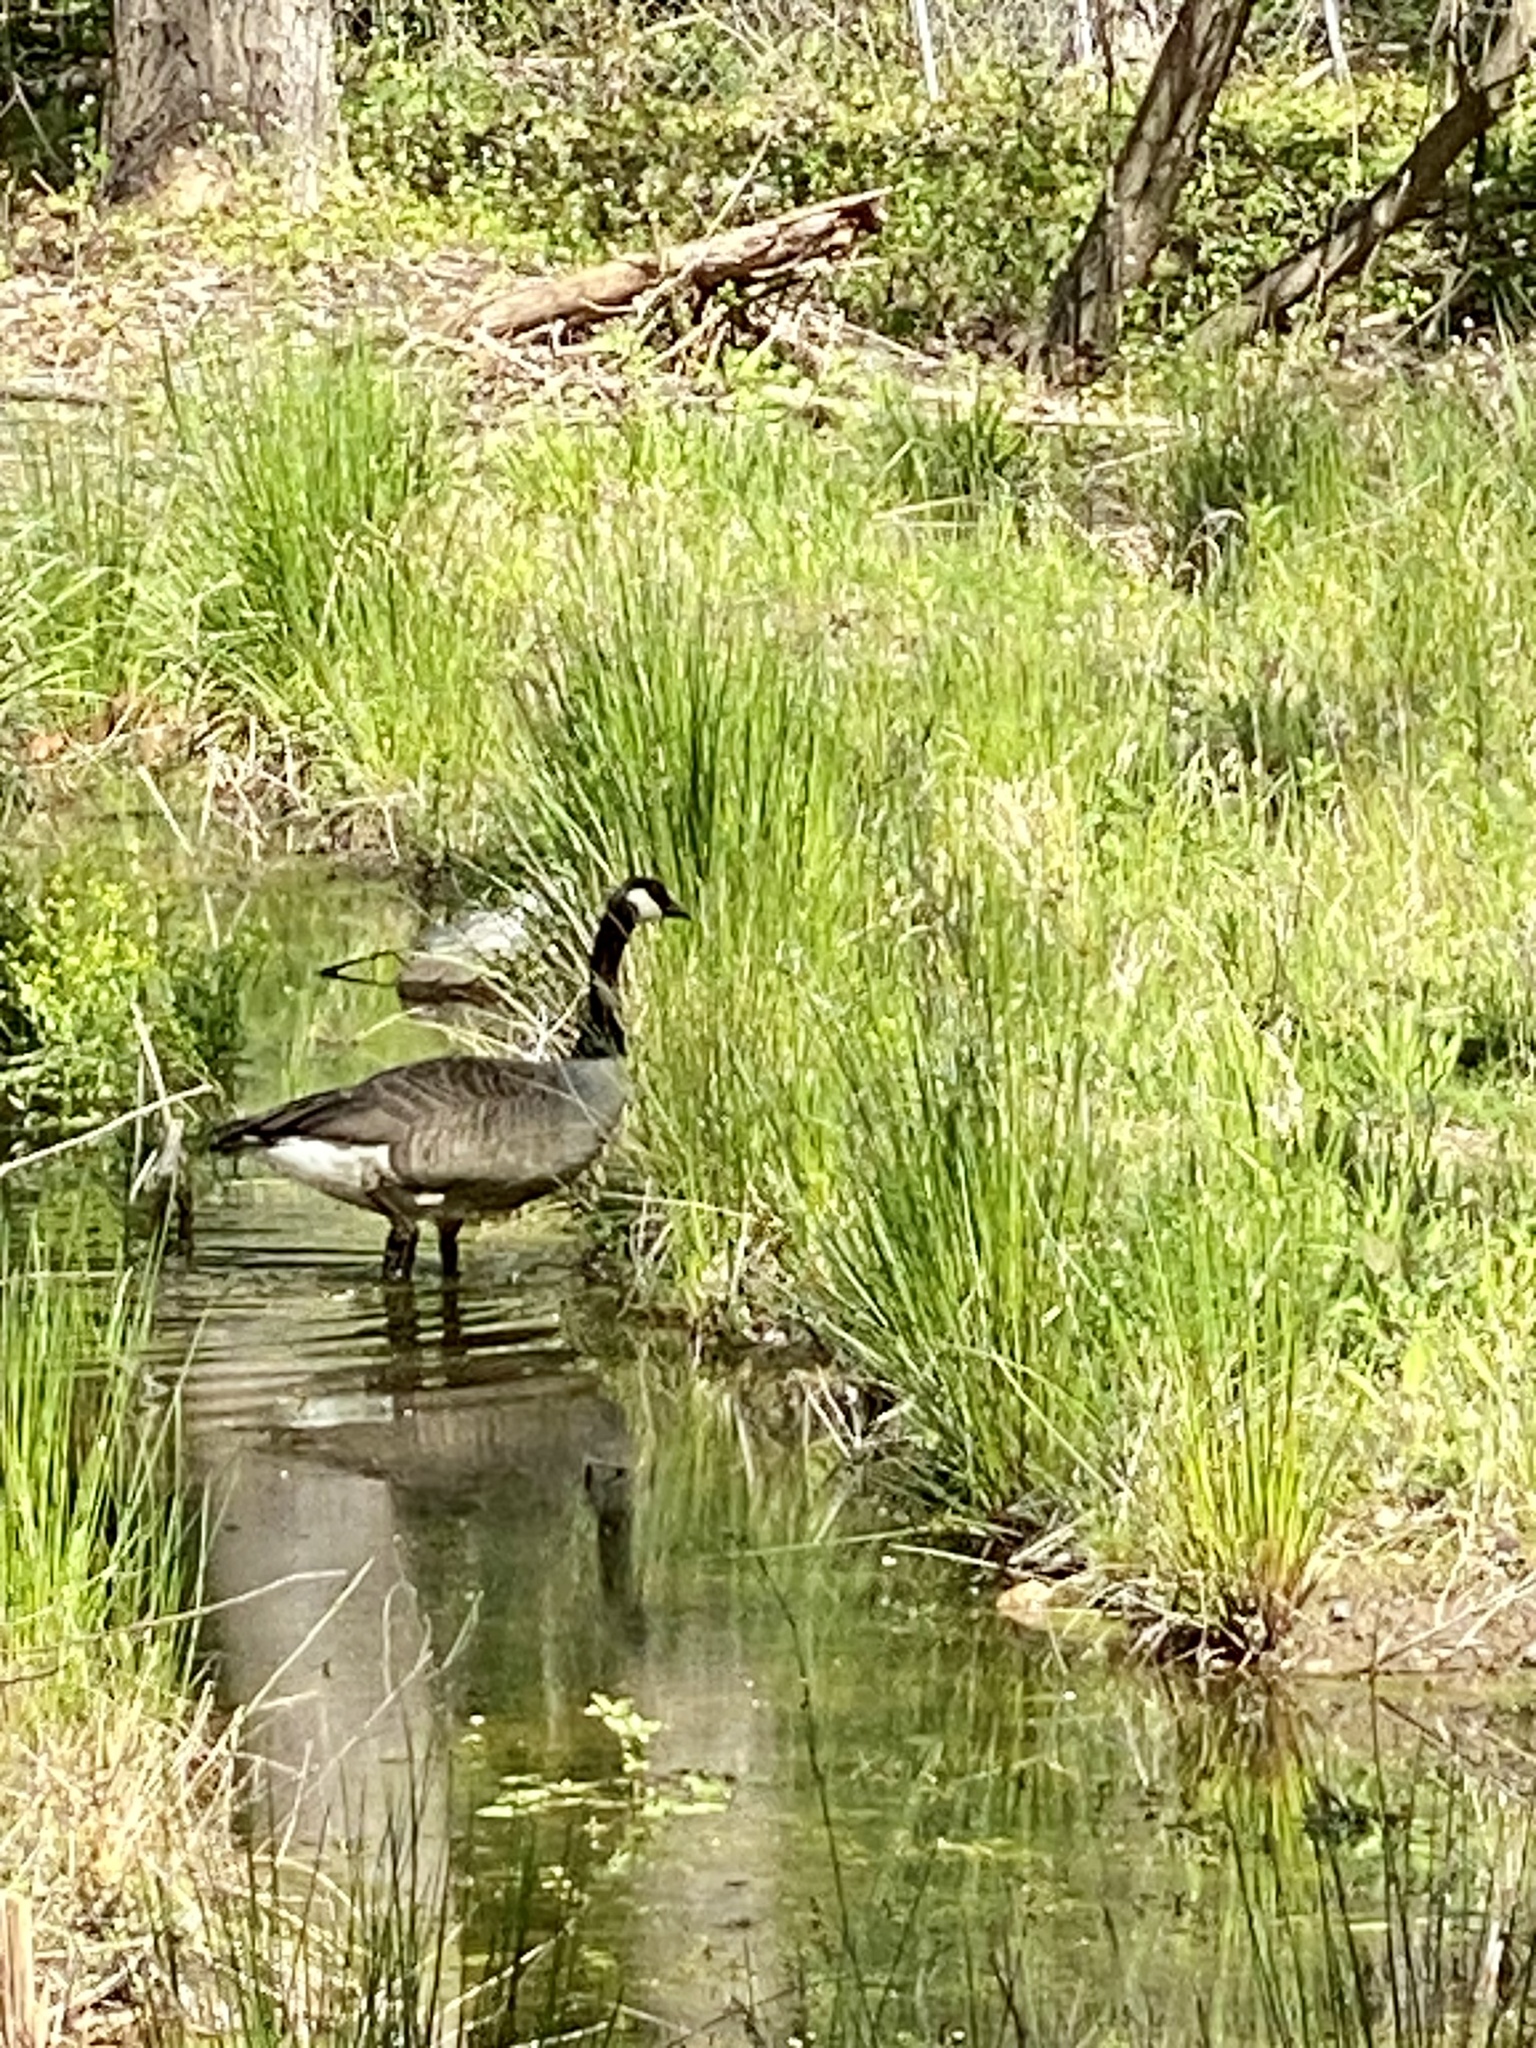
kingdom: Animalia
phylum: Chordata
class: Aves
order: Anseriformes
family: Anatidae
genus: Branta
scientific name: Branta canadensis
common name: Canada goose
